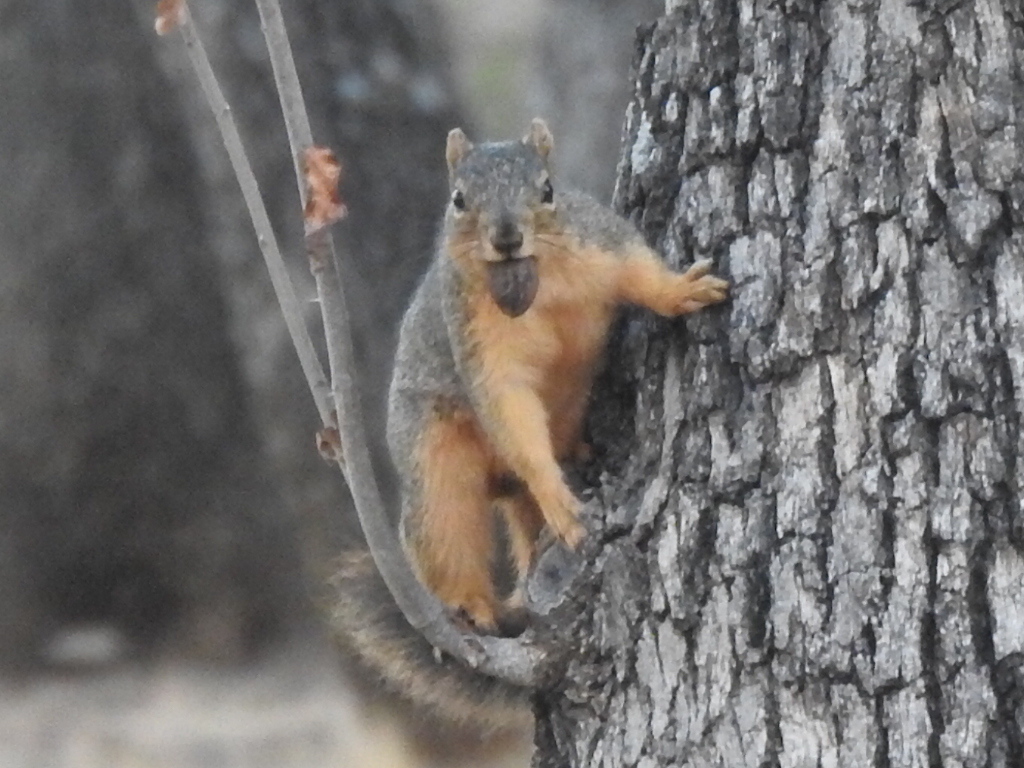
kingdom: Animalia
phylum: Chordata
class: Mammalia
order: Rodentia
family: Sciuridae
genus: Sciurus
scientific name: Sciurus niger
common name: Fox squirrel
